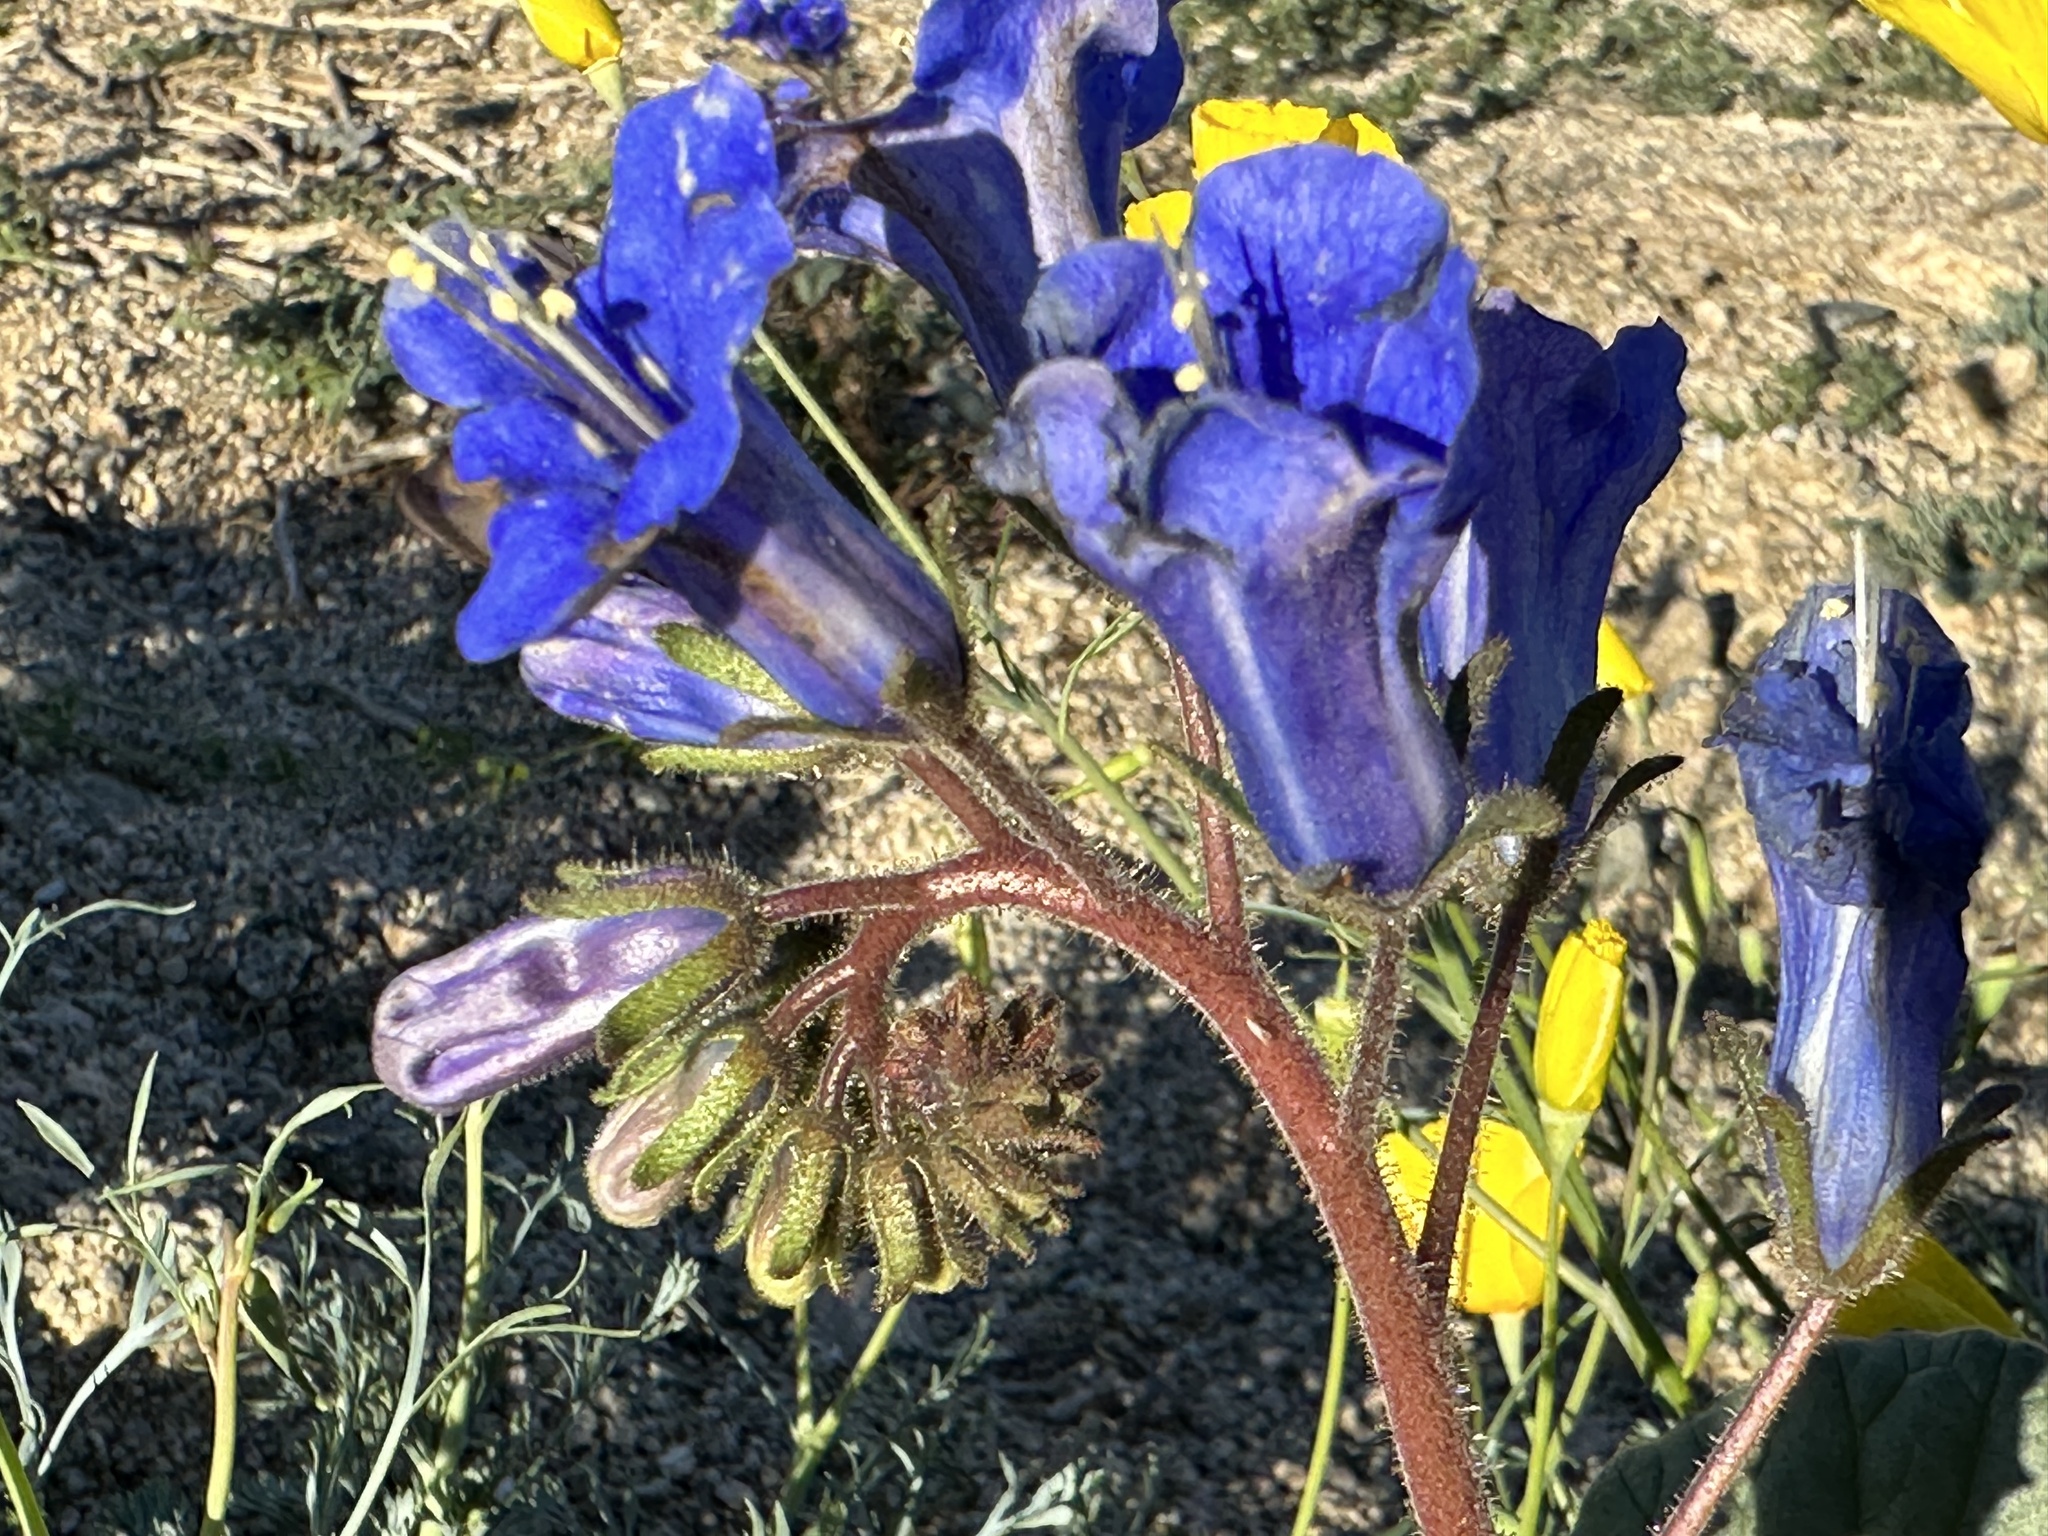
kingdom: Plantae
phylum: Tracheophyta
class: Magnoliopsida
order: Boraginales
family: Hydrophyllaceae
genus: Phacelia
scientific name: Phacelia campanularia
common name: California bluebell
